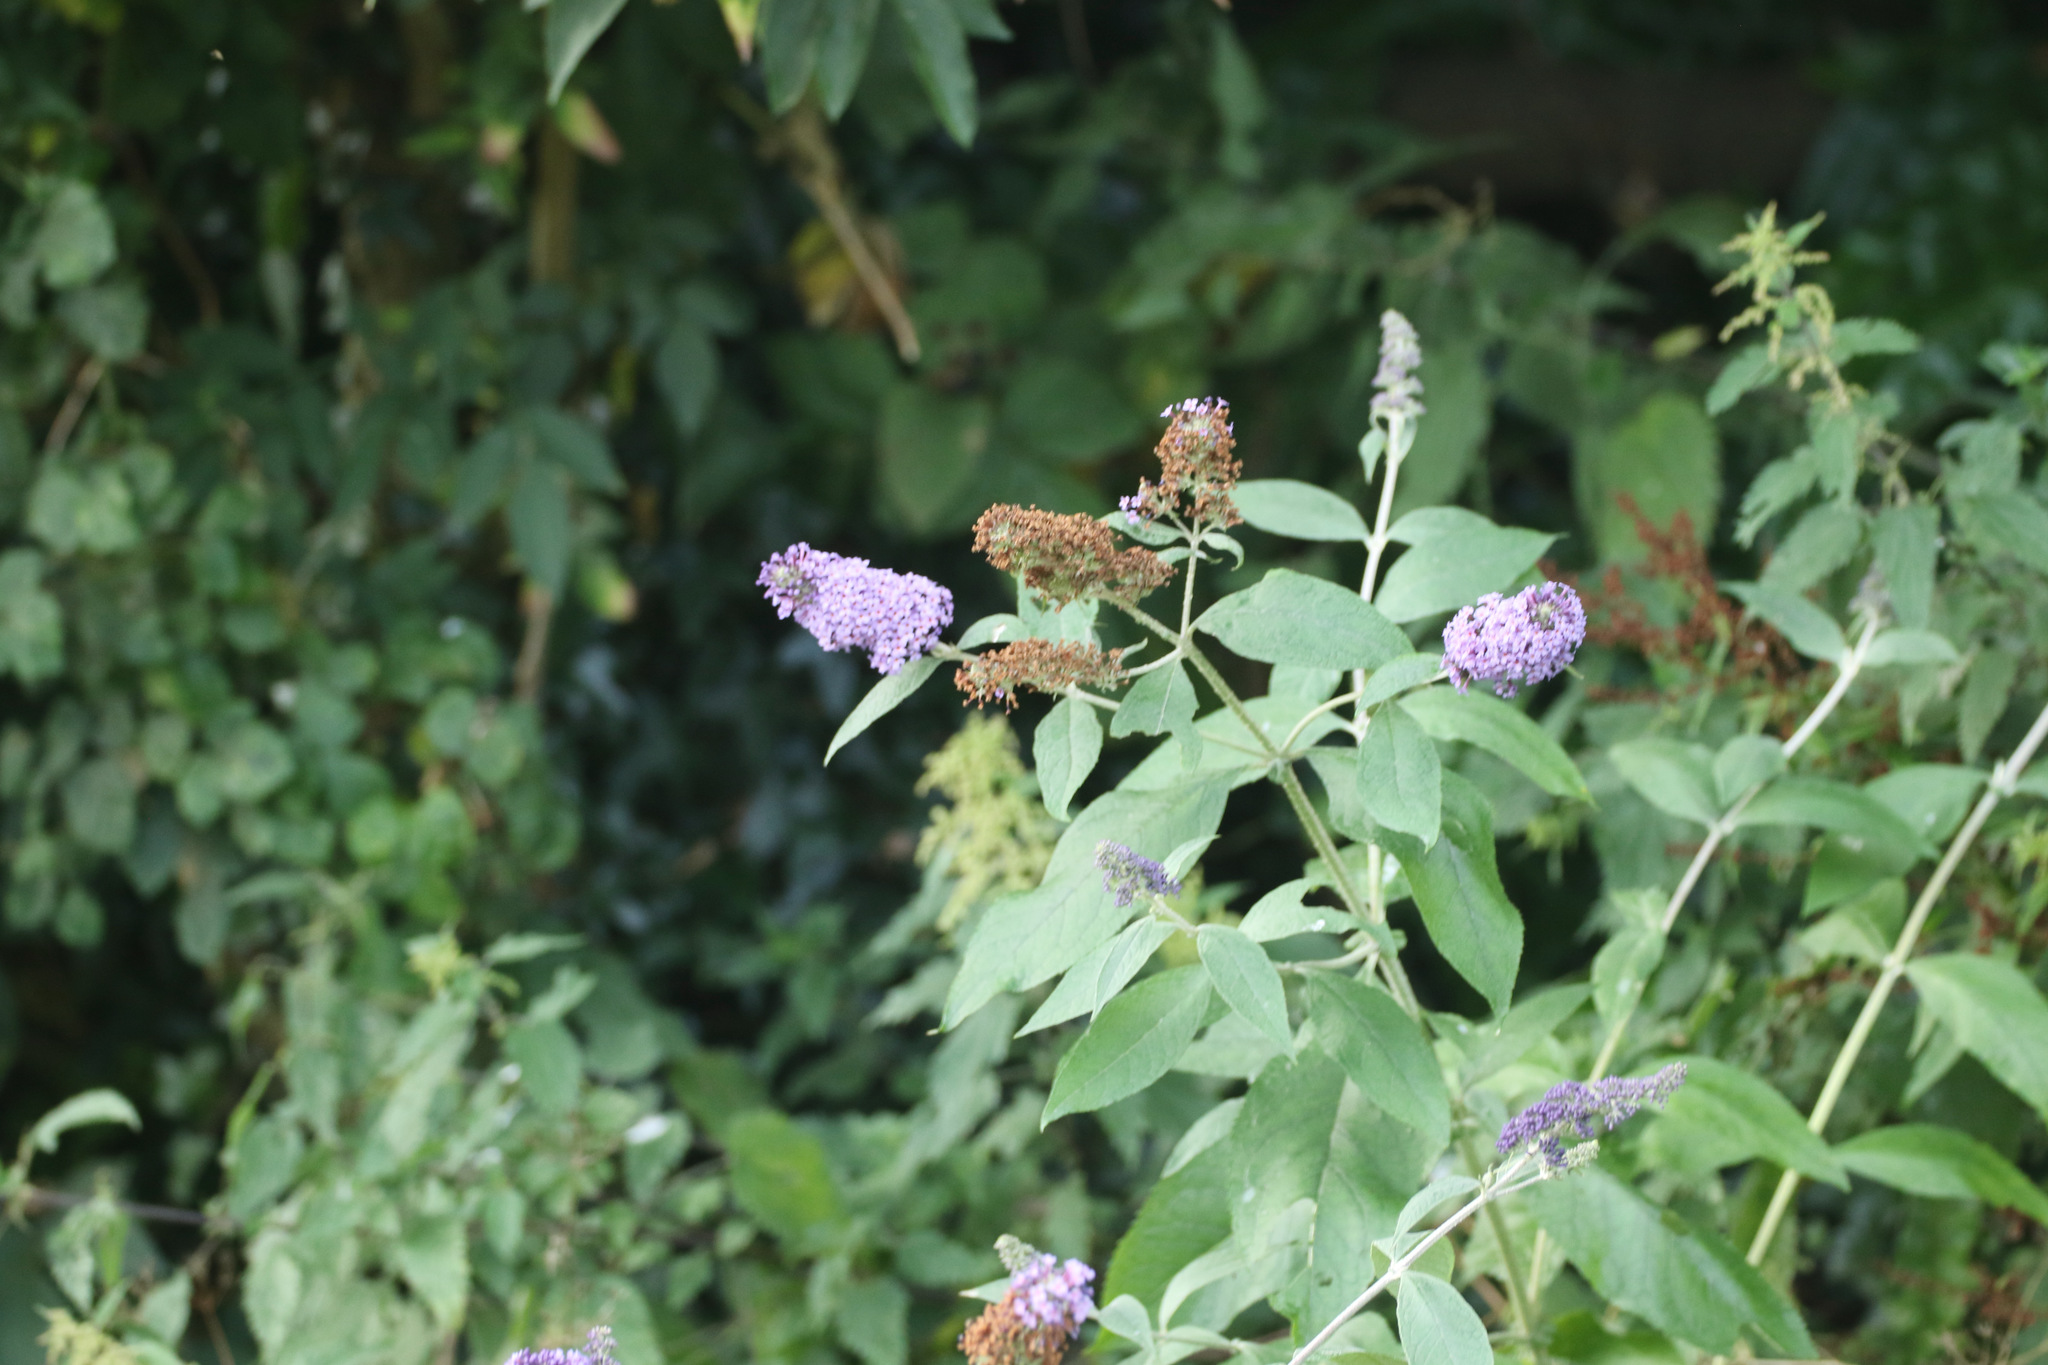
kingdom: Plantae
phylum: Tracheophyta
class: Magnoliopsida
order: Lamiales
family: Scrophulariaceae
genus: Buddleja
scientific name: Buddleja davidii
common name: Butterfly-bush
